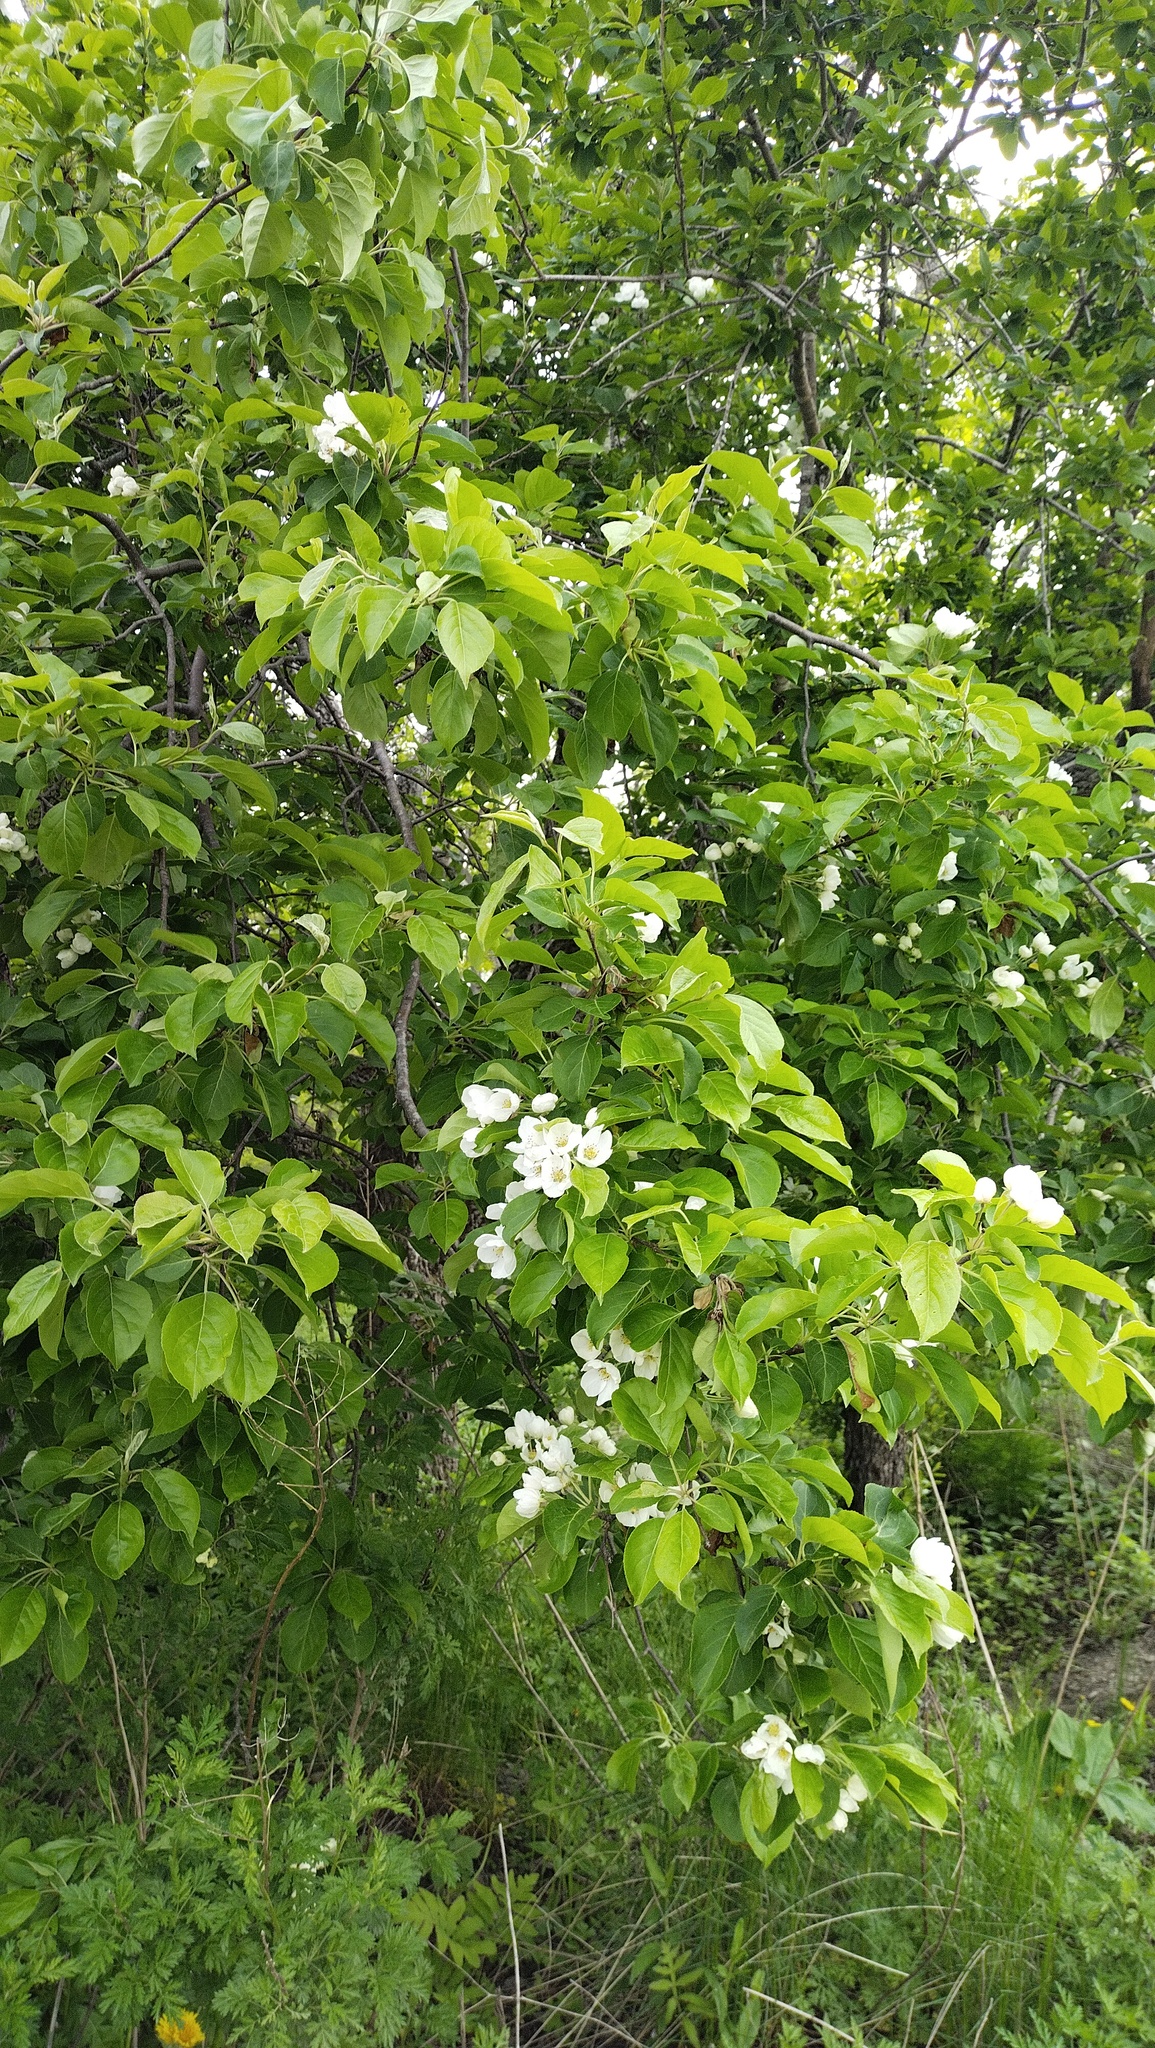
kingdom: Plantae
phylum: Tracheophyta
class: Magnoliopsida
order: Rosales
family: Rosaceae
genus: Malus
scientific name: Malus mandshurica
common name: Siberian crabapple
